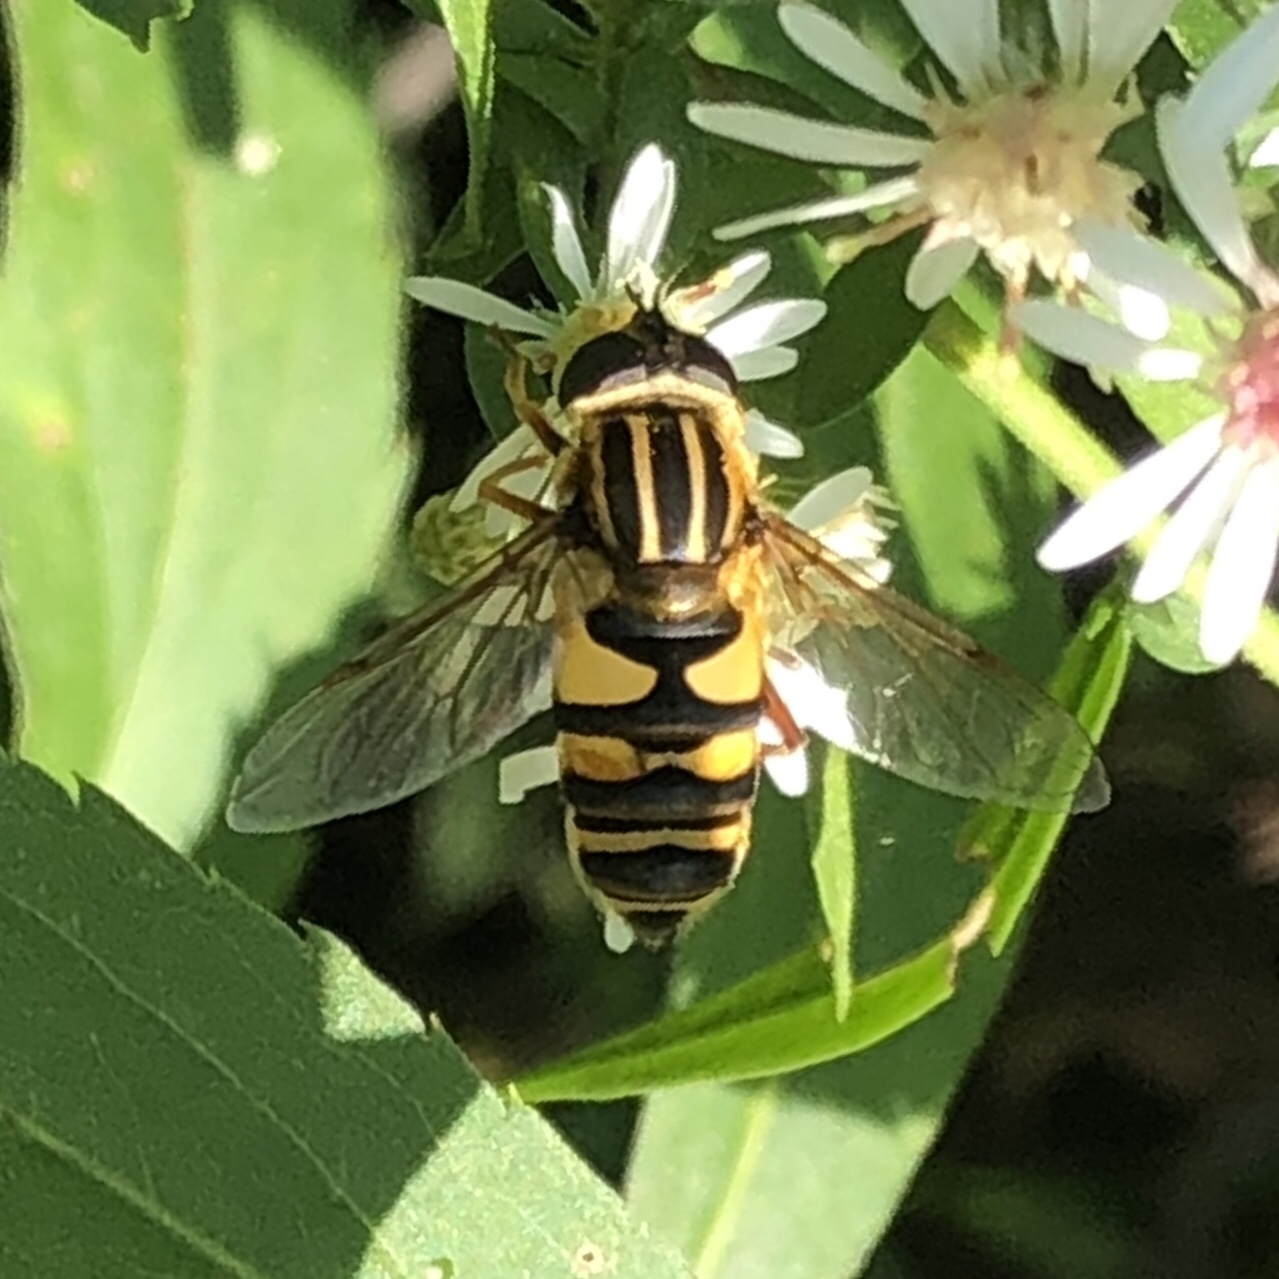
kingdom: Animalia
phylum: Arthropoda
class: Insecta
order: Diptera
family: Syrphidae
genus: Helophilus
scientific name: Helophilus fasciatus
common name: Narrow-headed marsh fly
